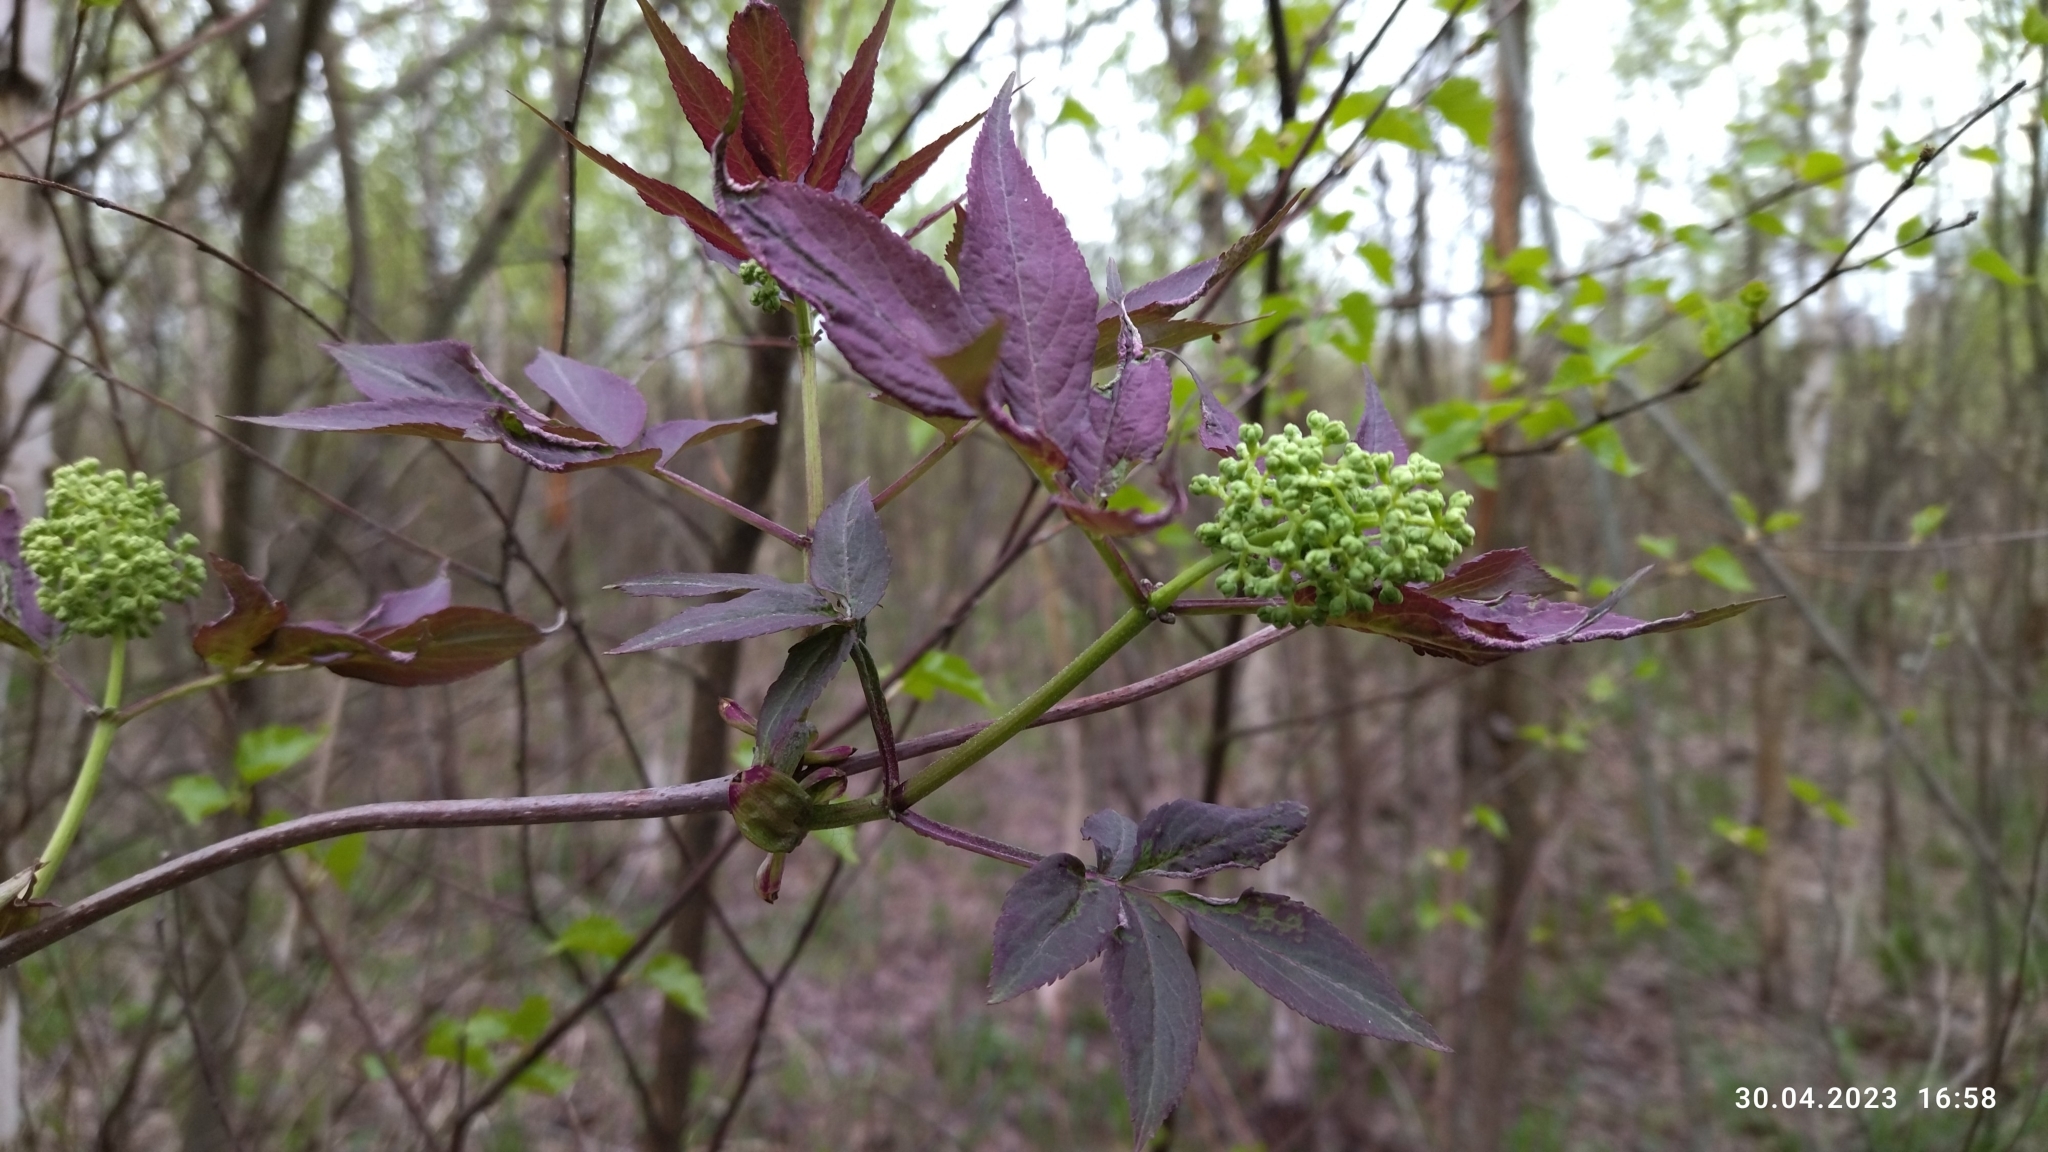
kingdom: Plantae
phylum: Tracheophyta
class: Magnoliopsida
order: Dipsacales
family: Viburnaceae
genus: Sambucus
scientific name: Sambucus racemosa
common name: Red-berried elder
